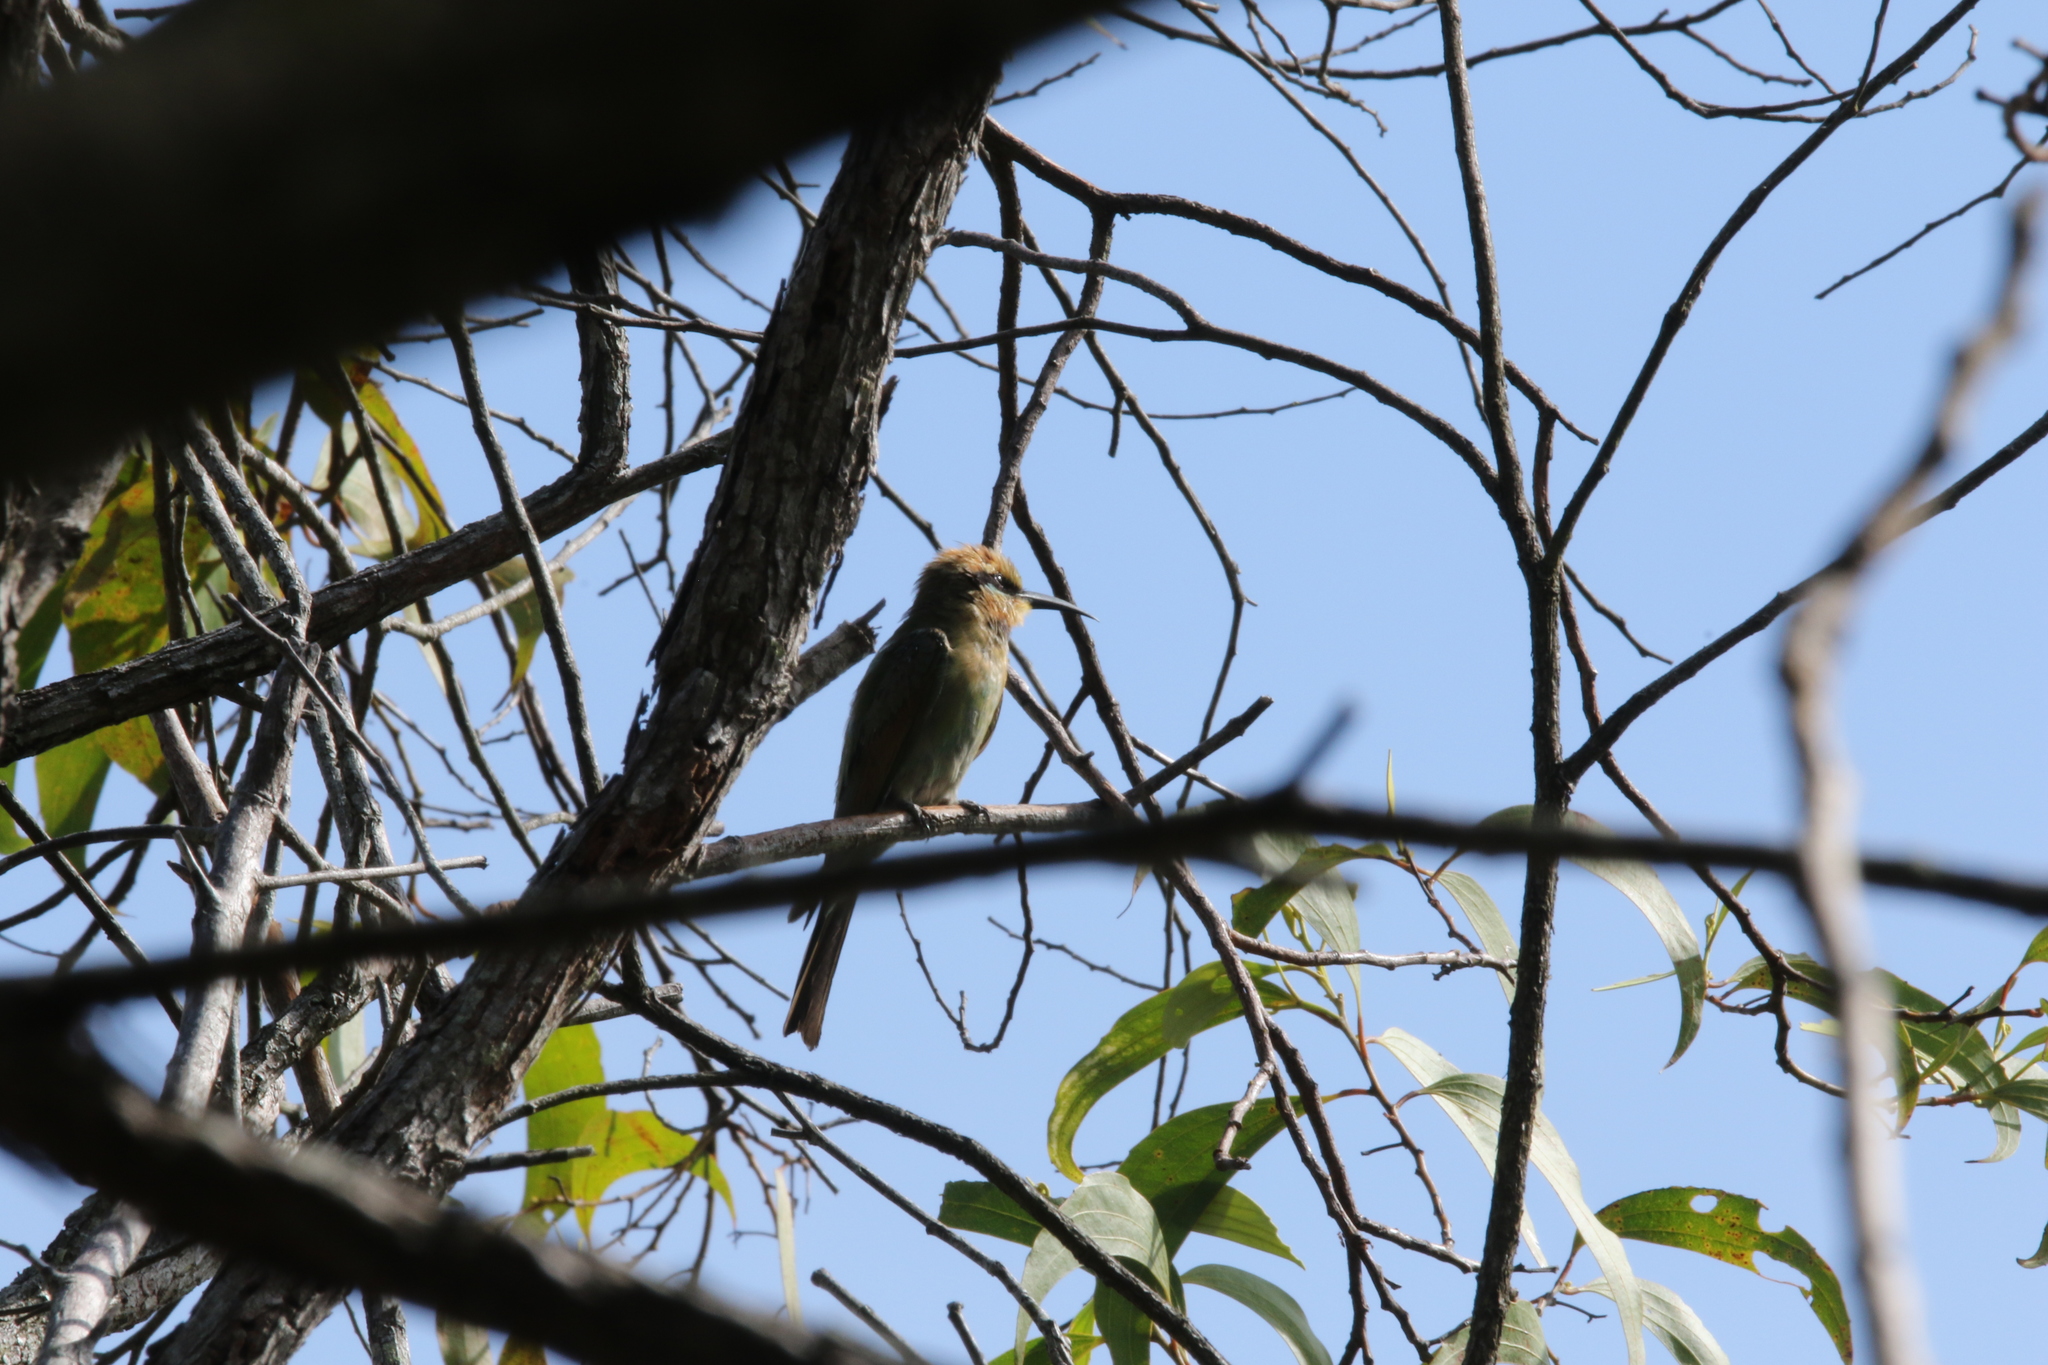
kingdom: Animalia
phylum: Chordata
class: Aves
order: Coraciiformes
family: Meropidae
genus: Merops
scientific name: Merops ornatus
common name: Rainbow bee-eater
